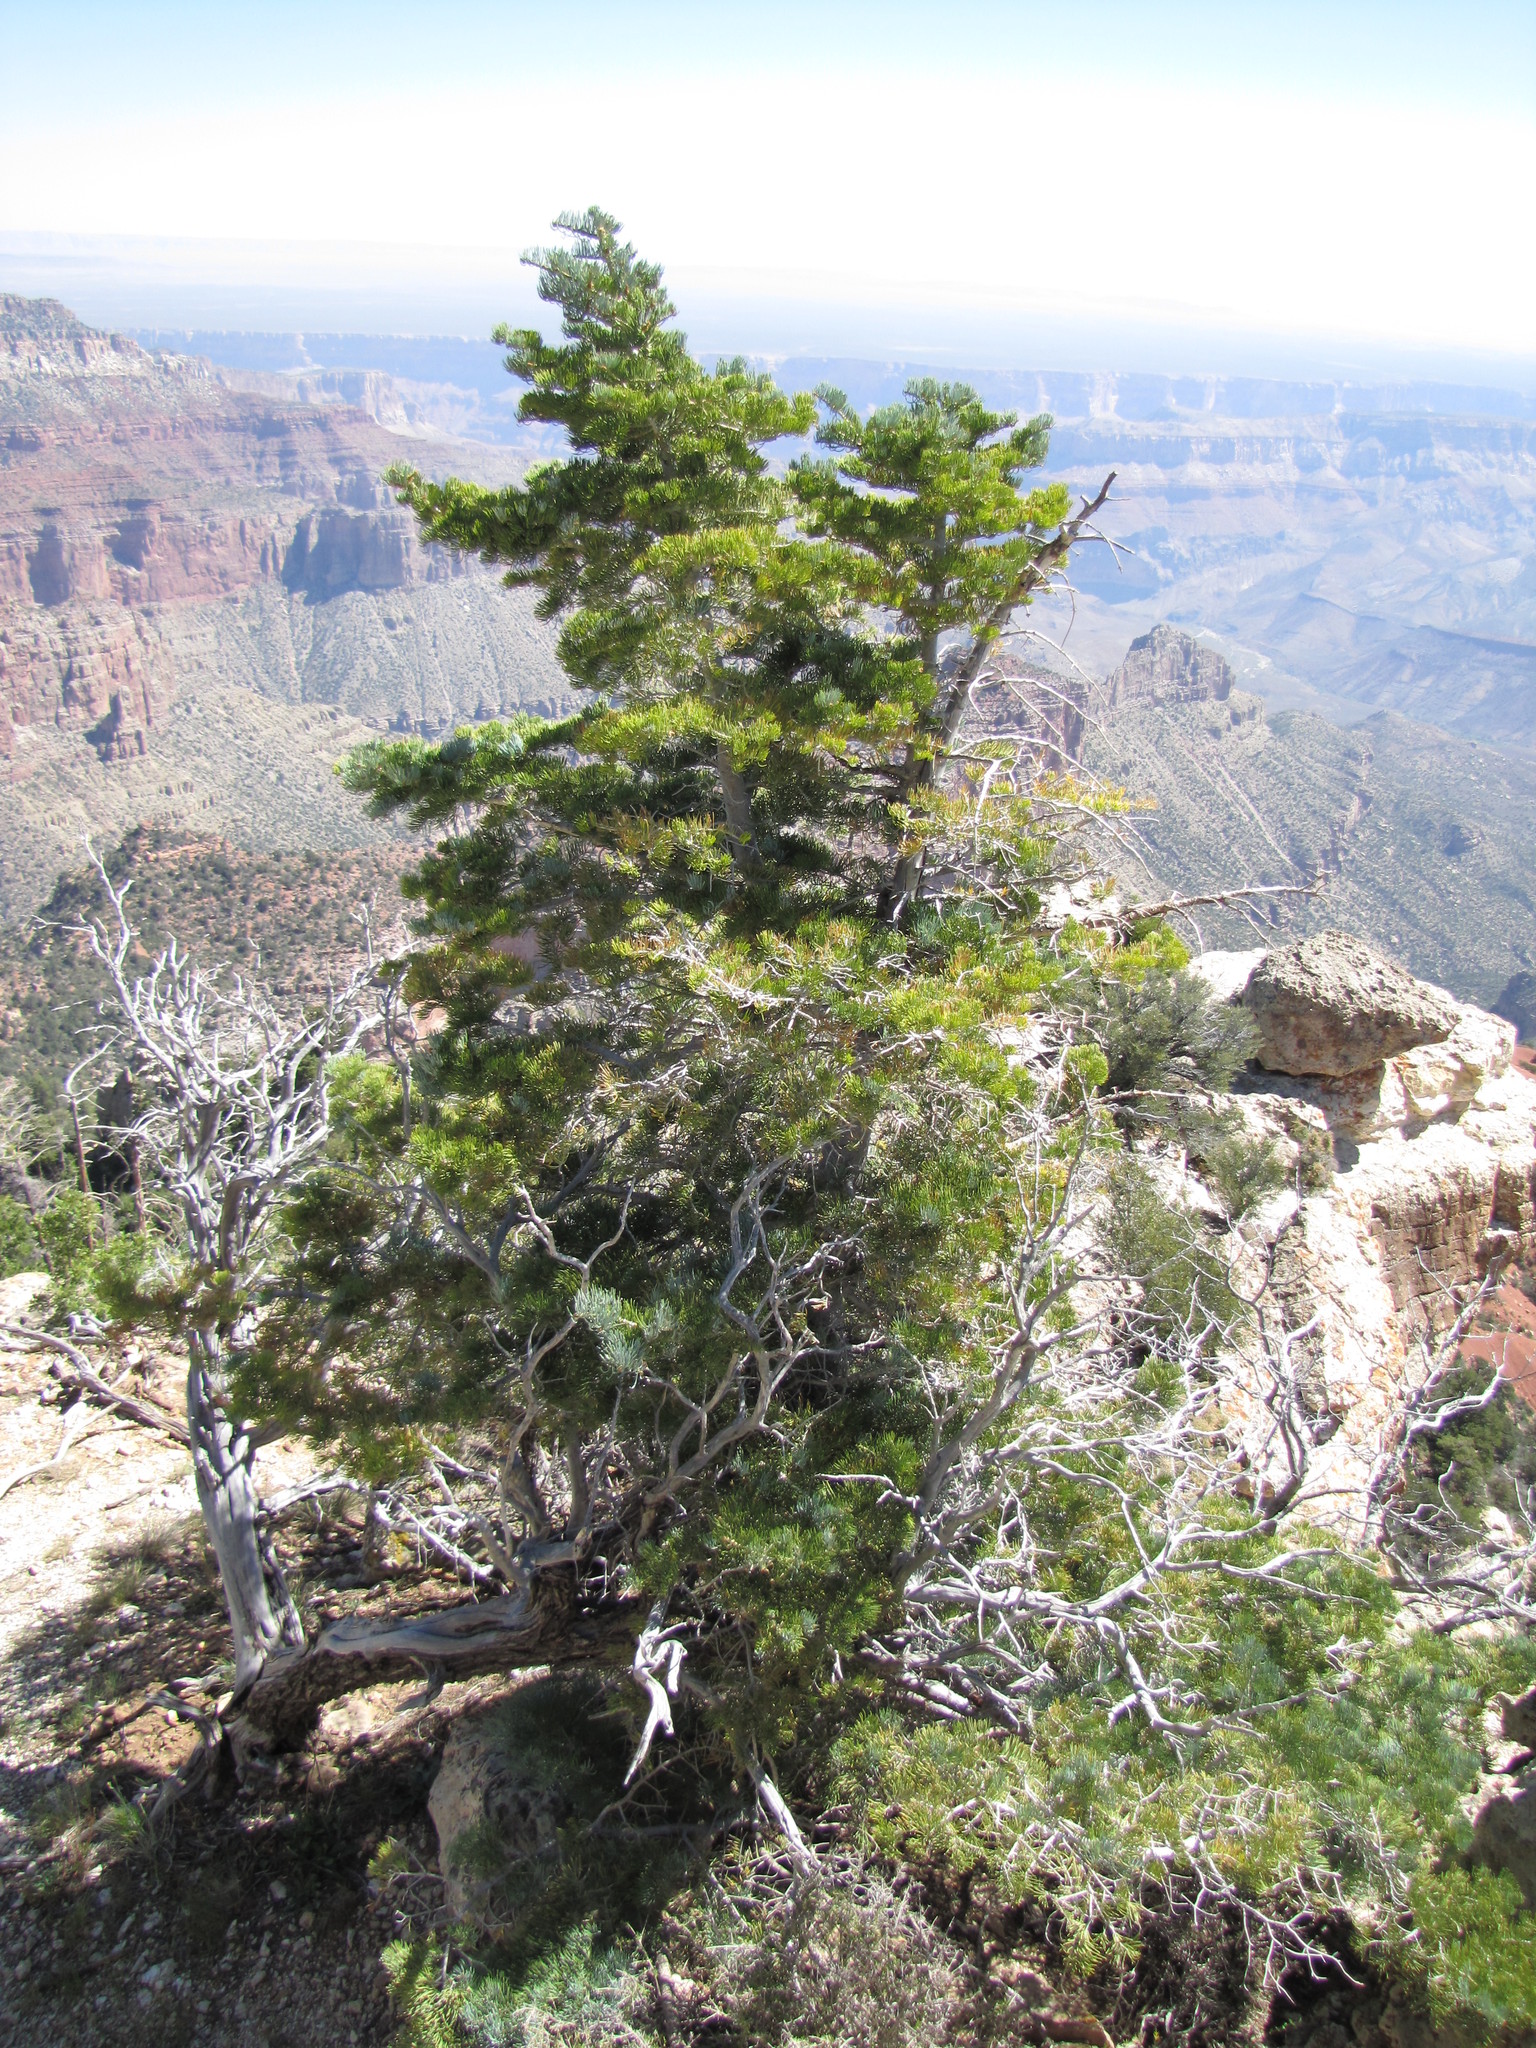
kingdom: Plantae
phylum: Tracheophyta
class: Pinopsida
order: Pinales
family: Pinaceae
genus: Abies
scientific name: Abies concolor
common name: Colorado fir
